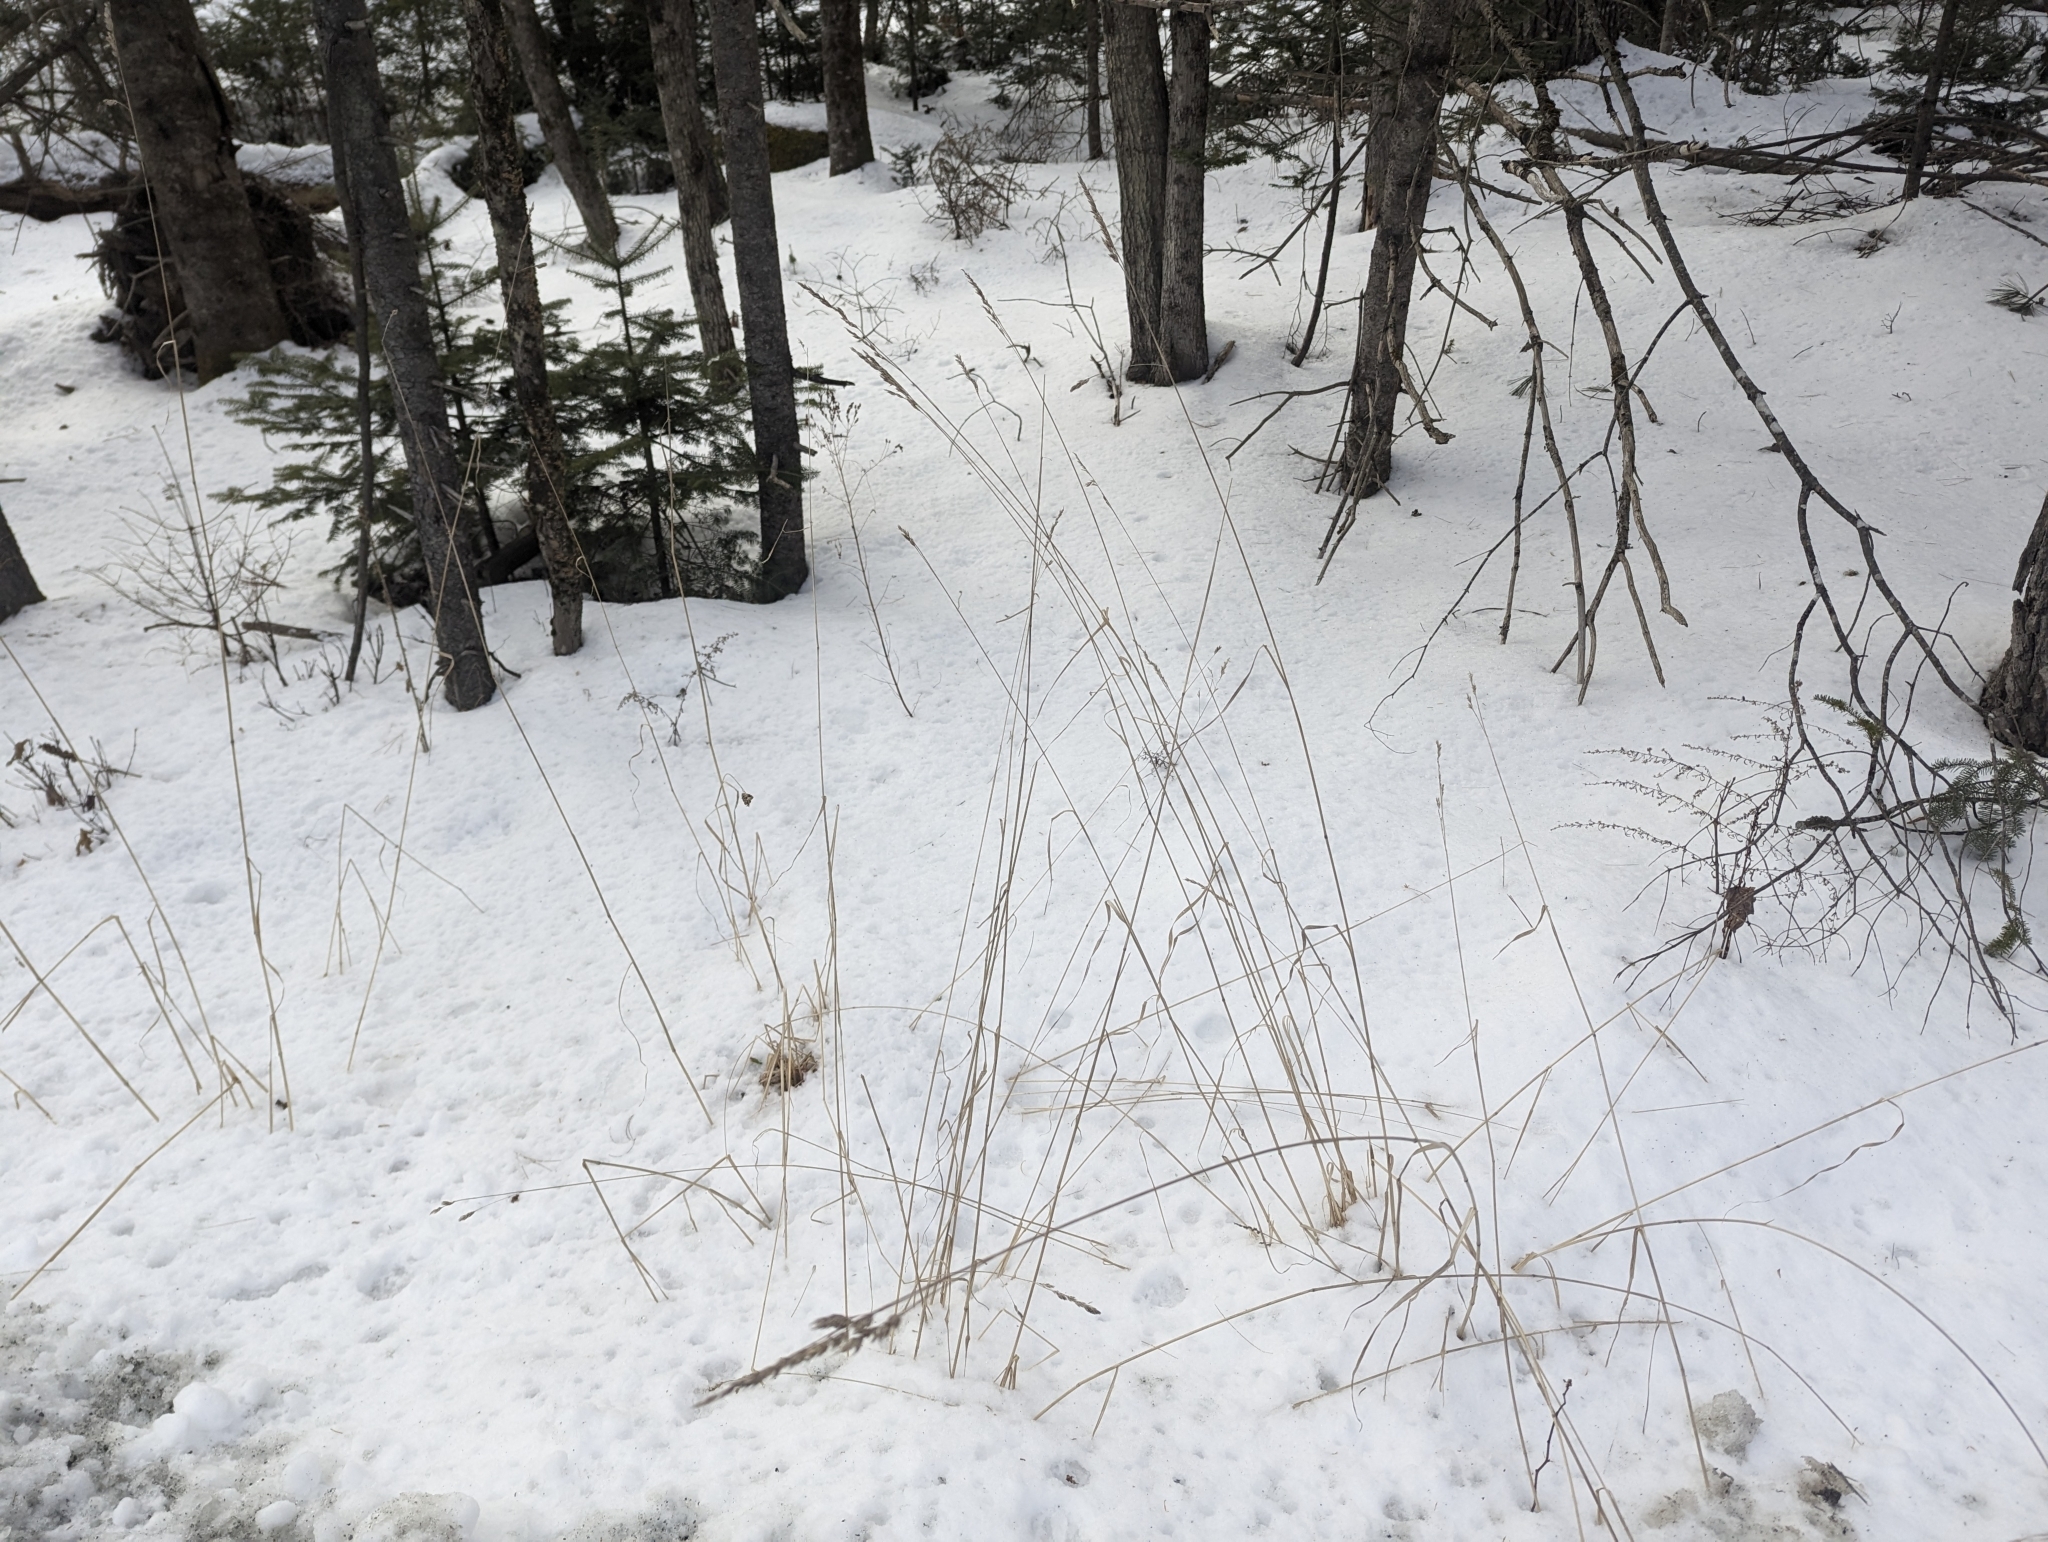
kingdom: Plantae
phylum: Tracheophyta
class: Liliopsida
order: Poales
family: Poaceae
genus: Dactylis
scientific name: Dactylis glomerata
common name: Orchardgrass
